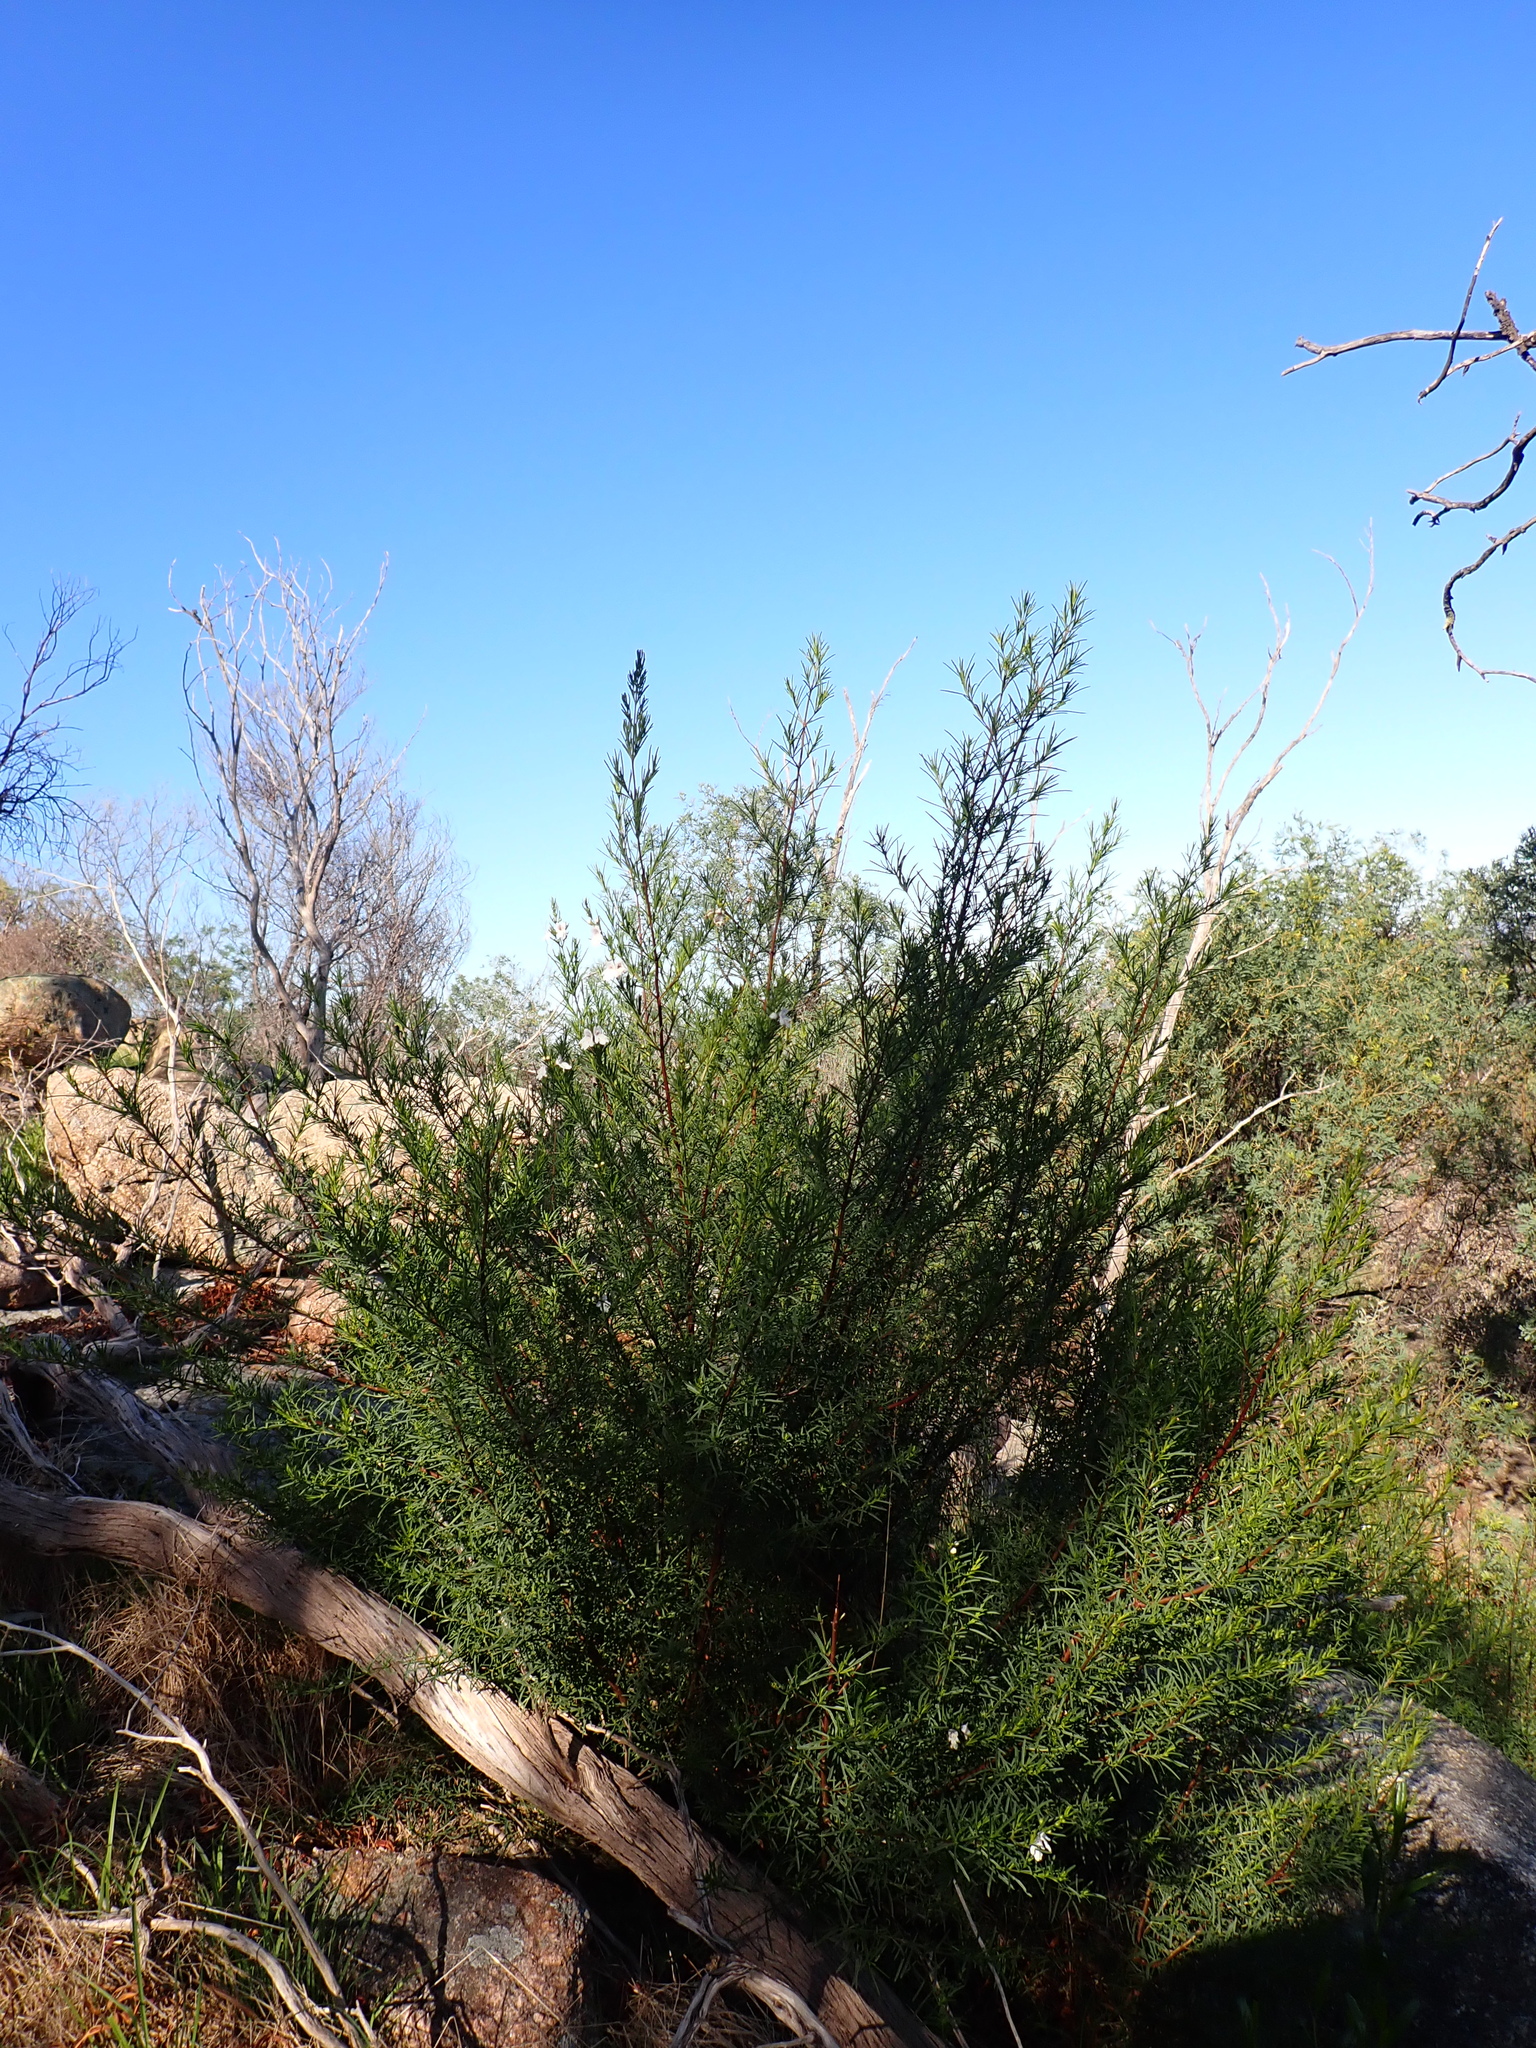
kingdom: Plantae
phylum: Tracheophyta
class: Magnoliopsida
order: Lamiales
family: Lamiaceae
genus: Prostanthera
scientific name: Prostanthera nivea
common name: Snowy mintbush
